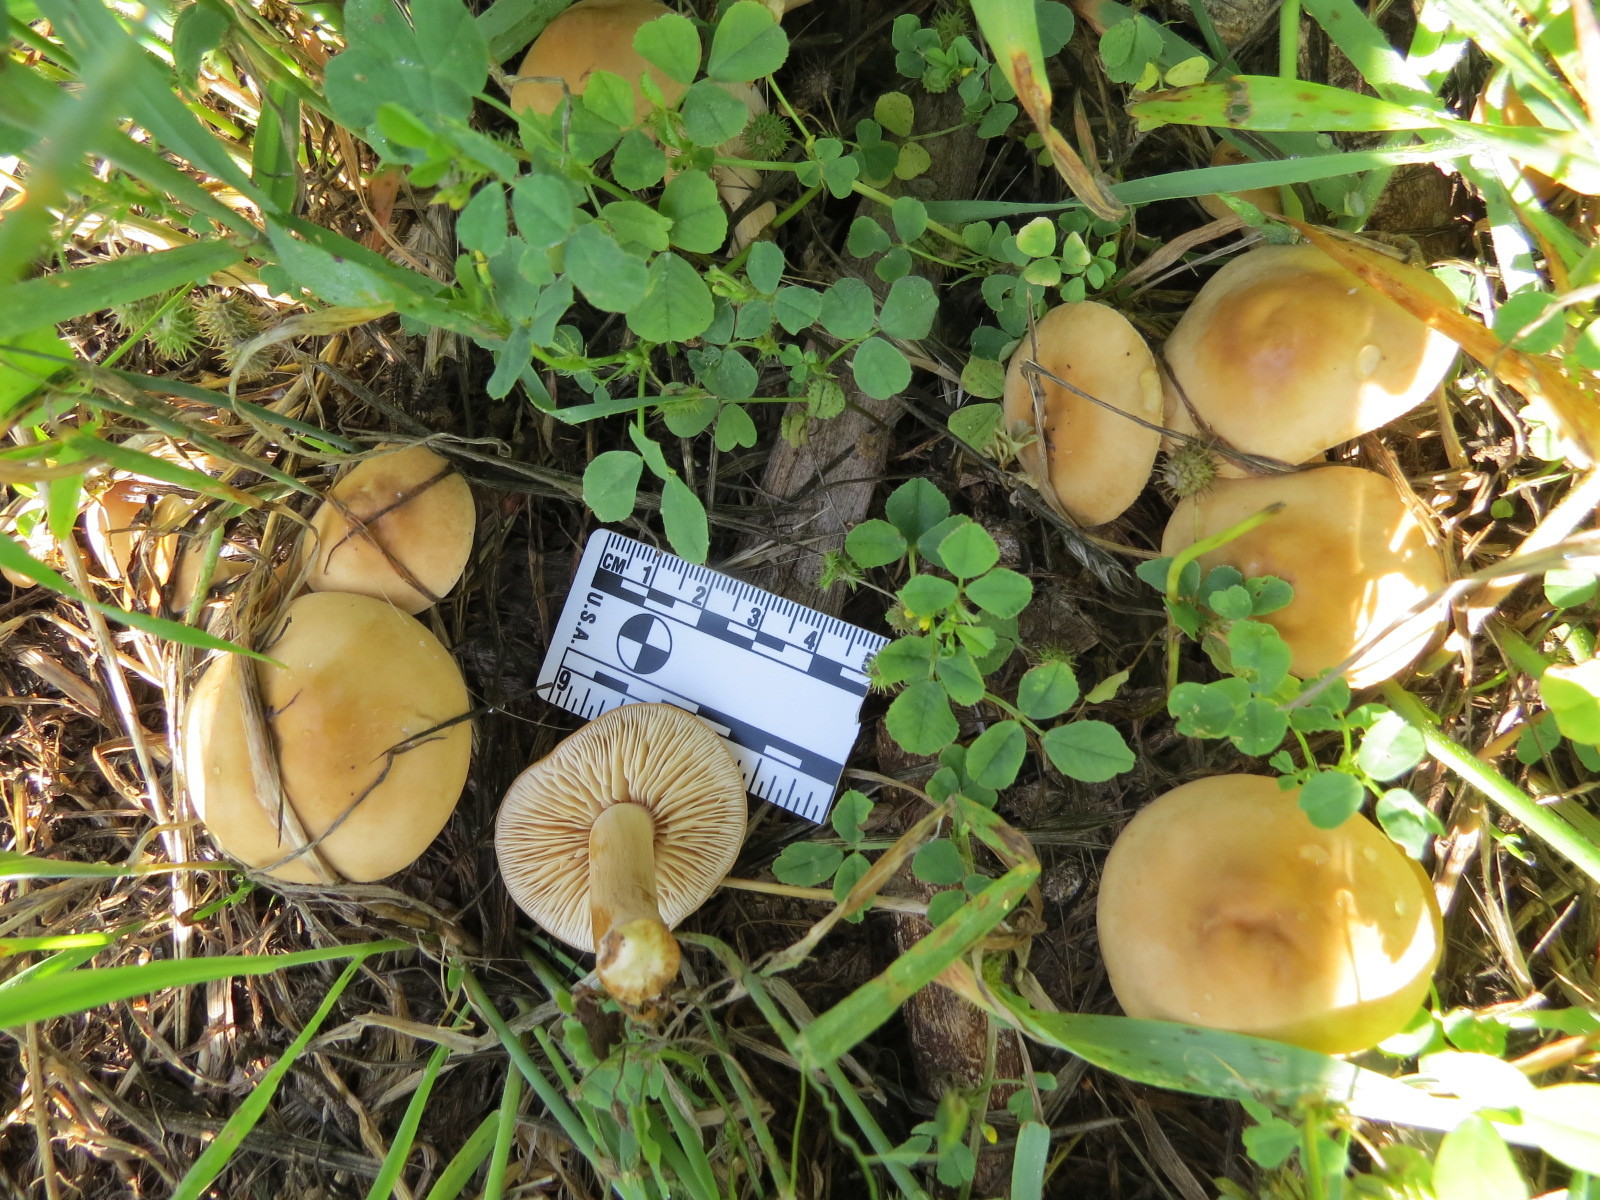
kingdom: Fungi
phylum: Basidiomycota
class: Agaricomycetes
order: Agaricales
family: Strophariaceae
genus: Agrocybe
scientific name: Agrocybe putaminum
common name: Mulch fieldcap
